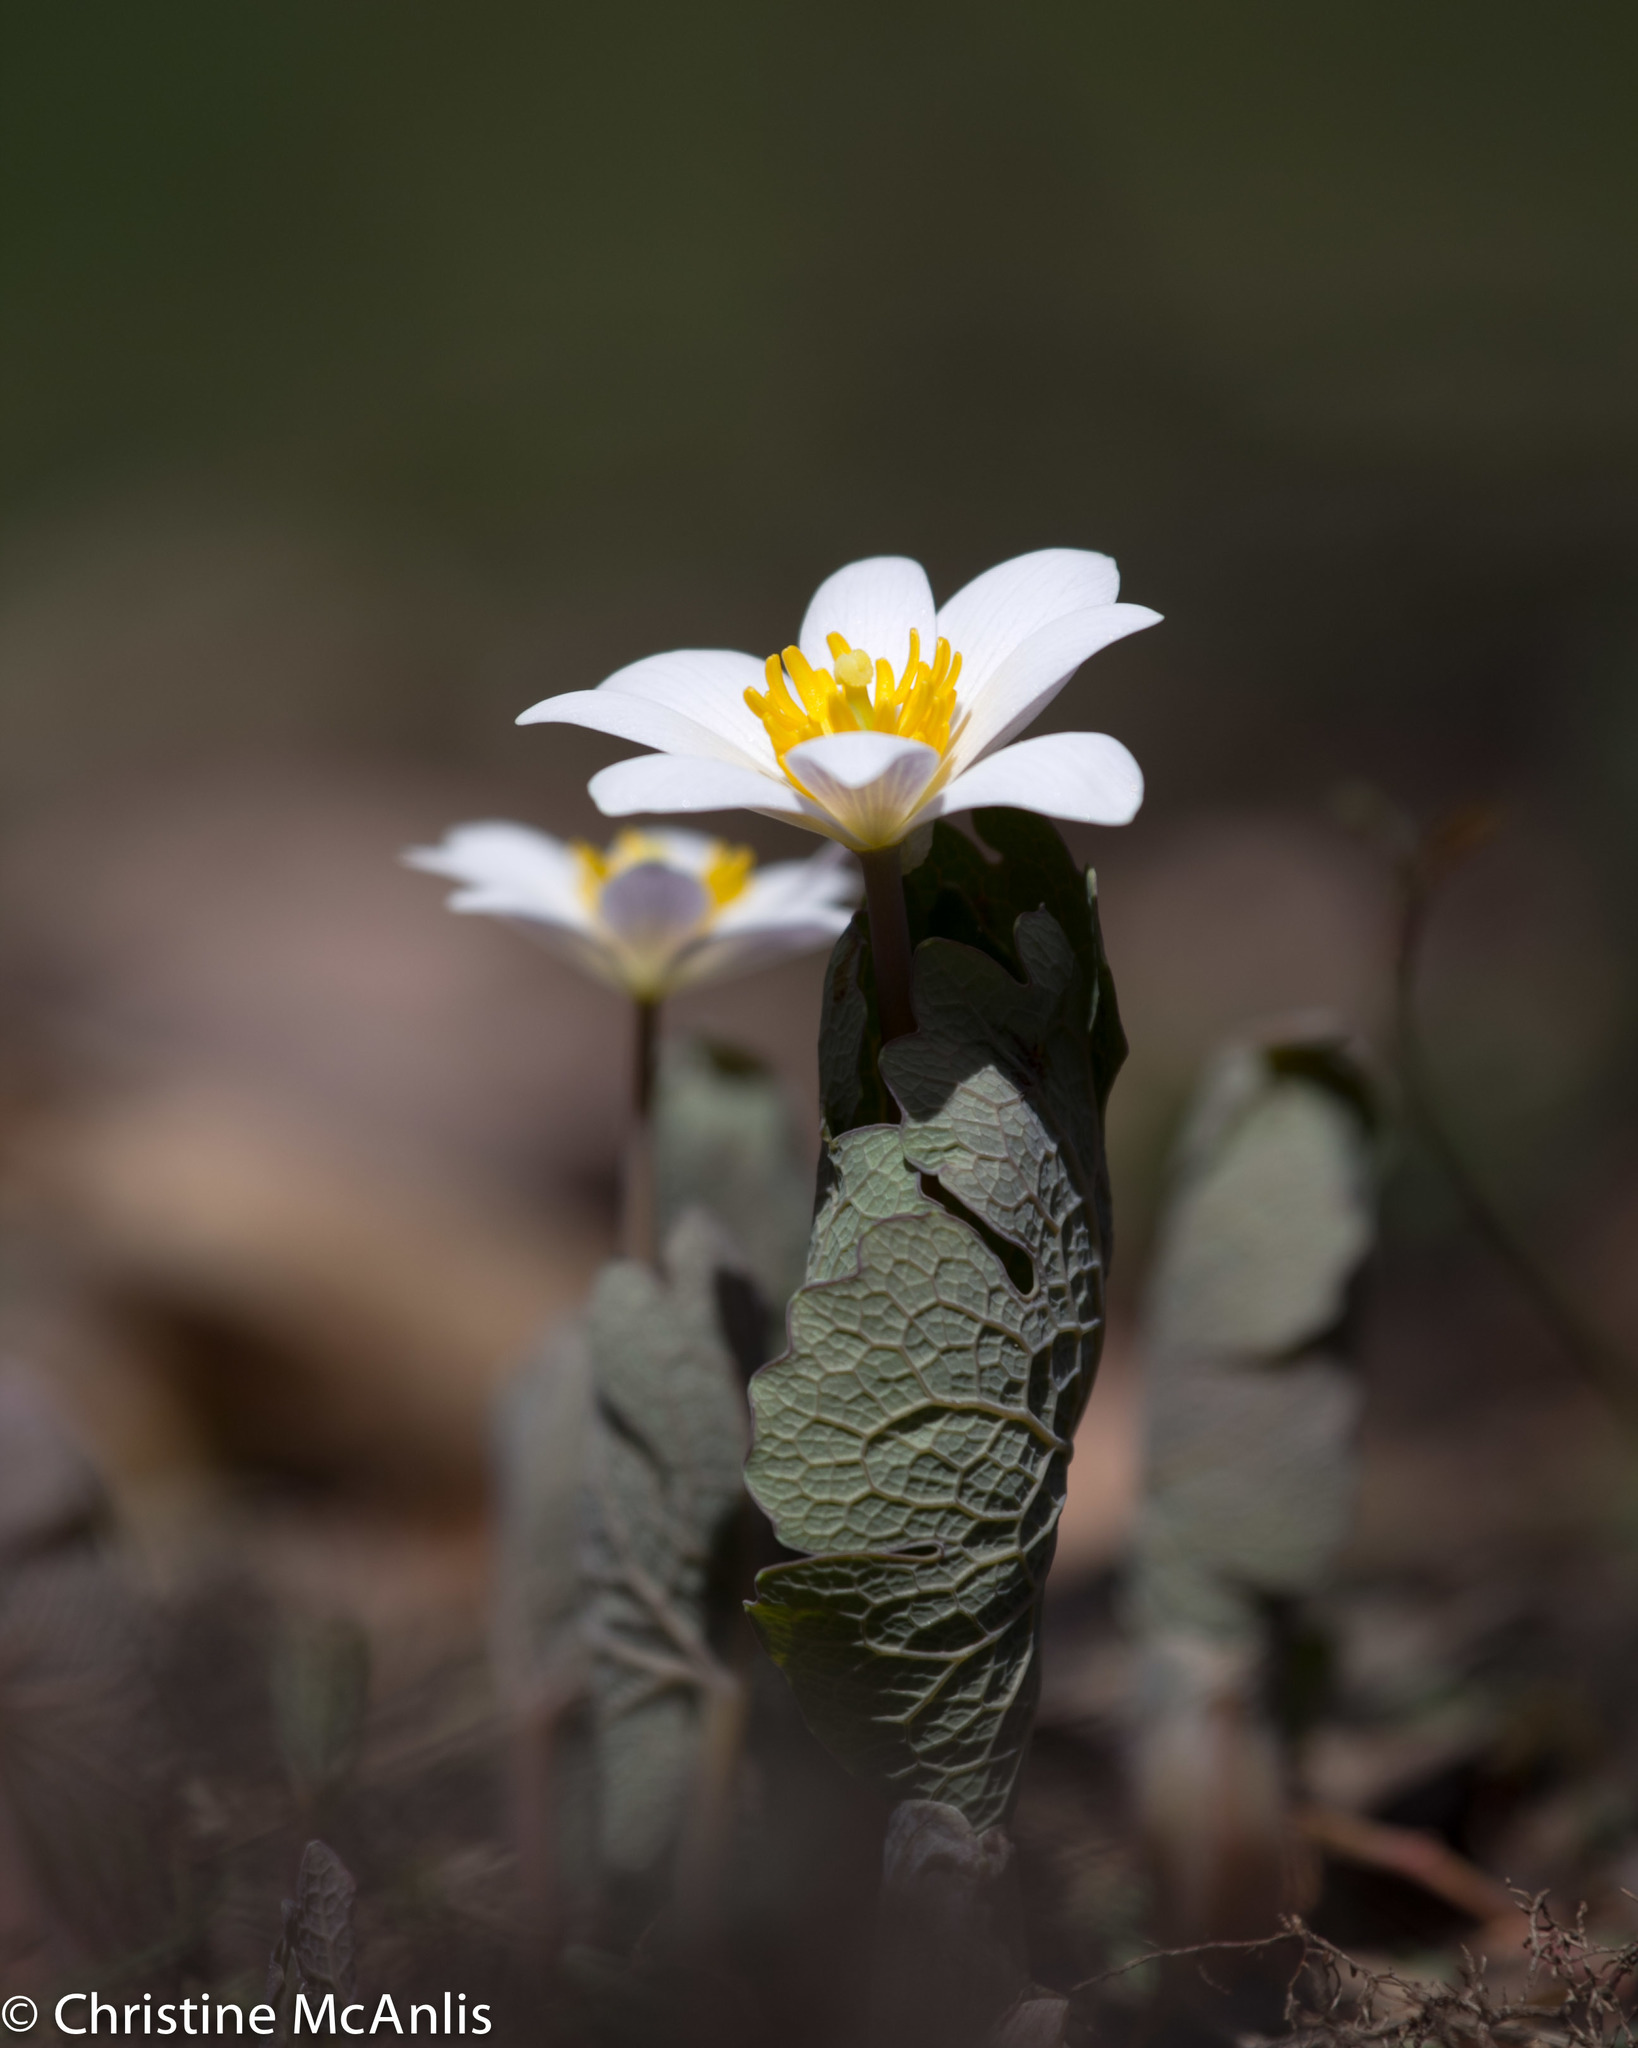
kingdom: Plantae
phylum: Tracheophyta
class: Magnoliopsida
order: Ranunculales
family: Papaveraceae
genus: Sanguinaria
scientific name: Sanguinaria canadensis
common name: Bloodroot
